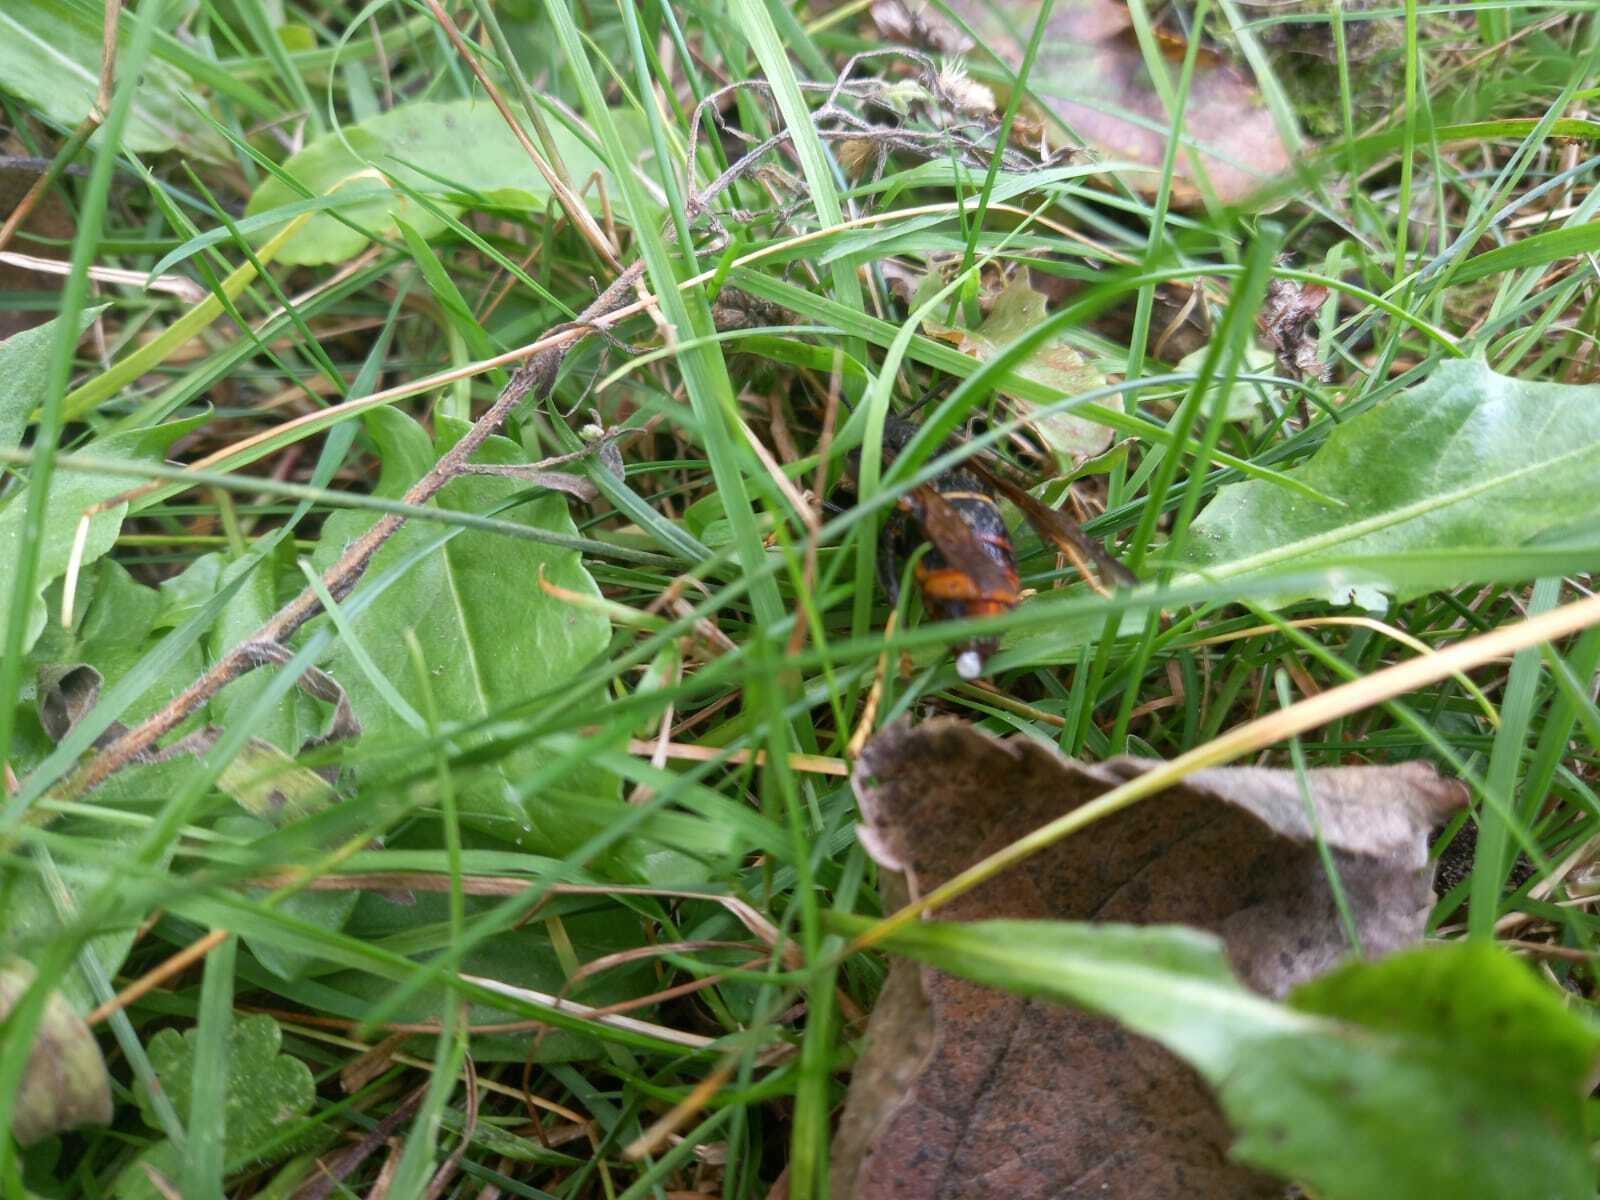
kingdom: Animalia
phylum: Arthropoda
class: Insecta
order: Hymenoptera
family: Vespidae
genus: Vespa
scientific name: Vespa velutina
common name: Asian hornet
